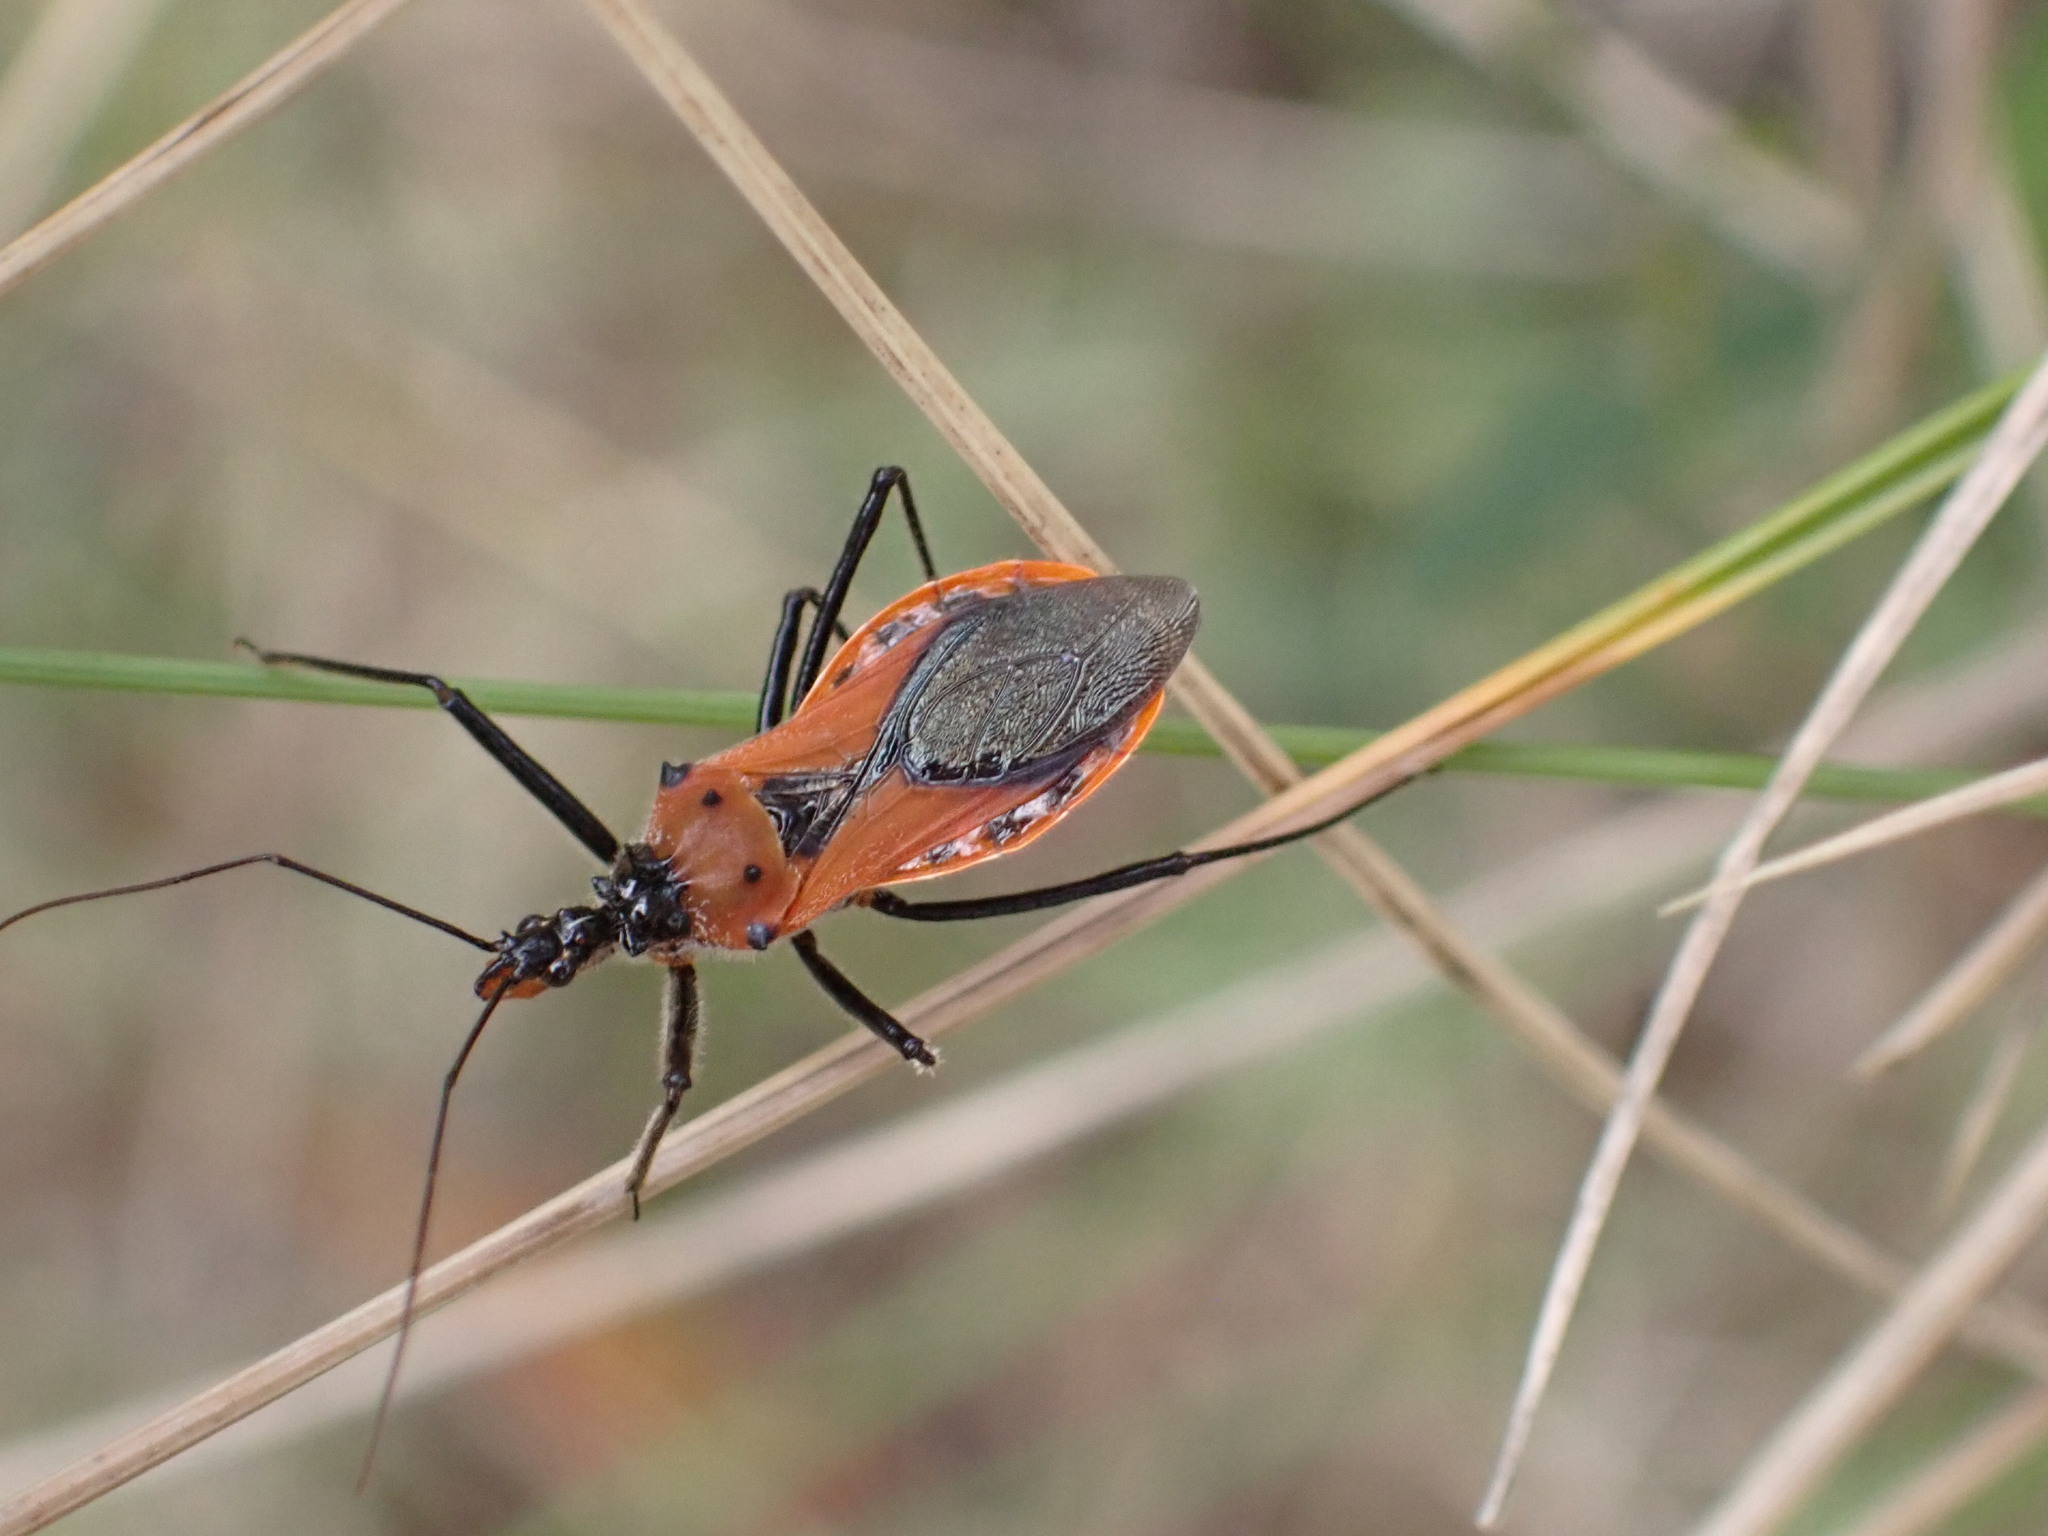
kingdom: Animalia
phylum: Arthropoda
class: Insecta
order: Hemiptera
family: Reduviidae
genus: Gminatus
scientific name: Gminatus australis
